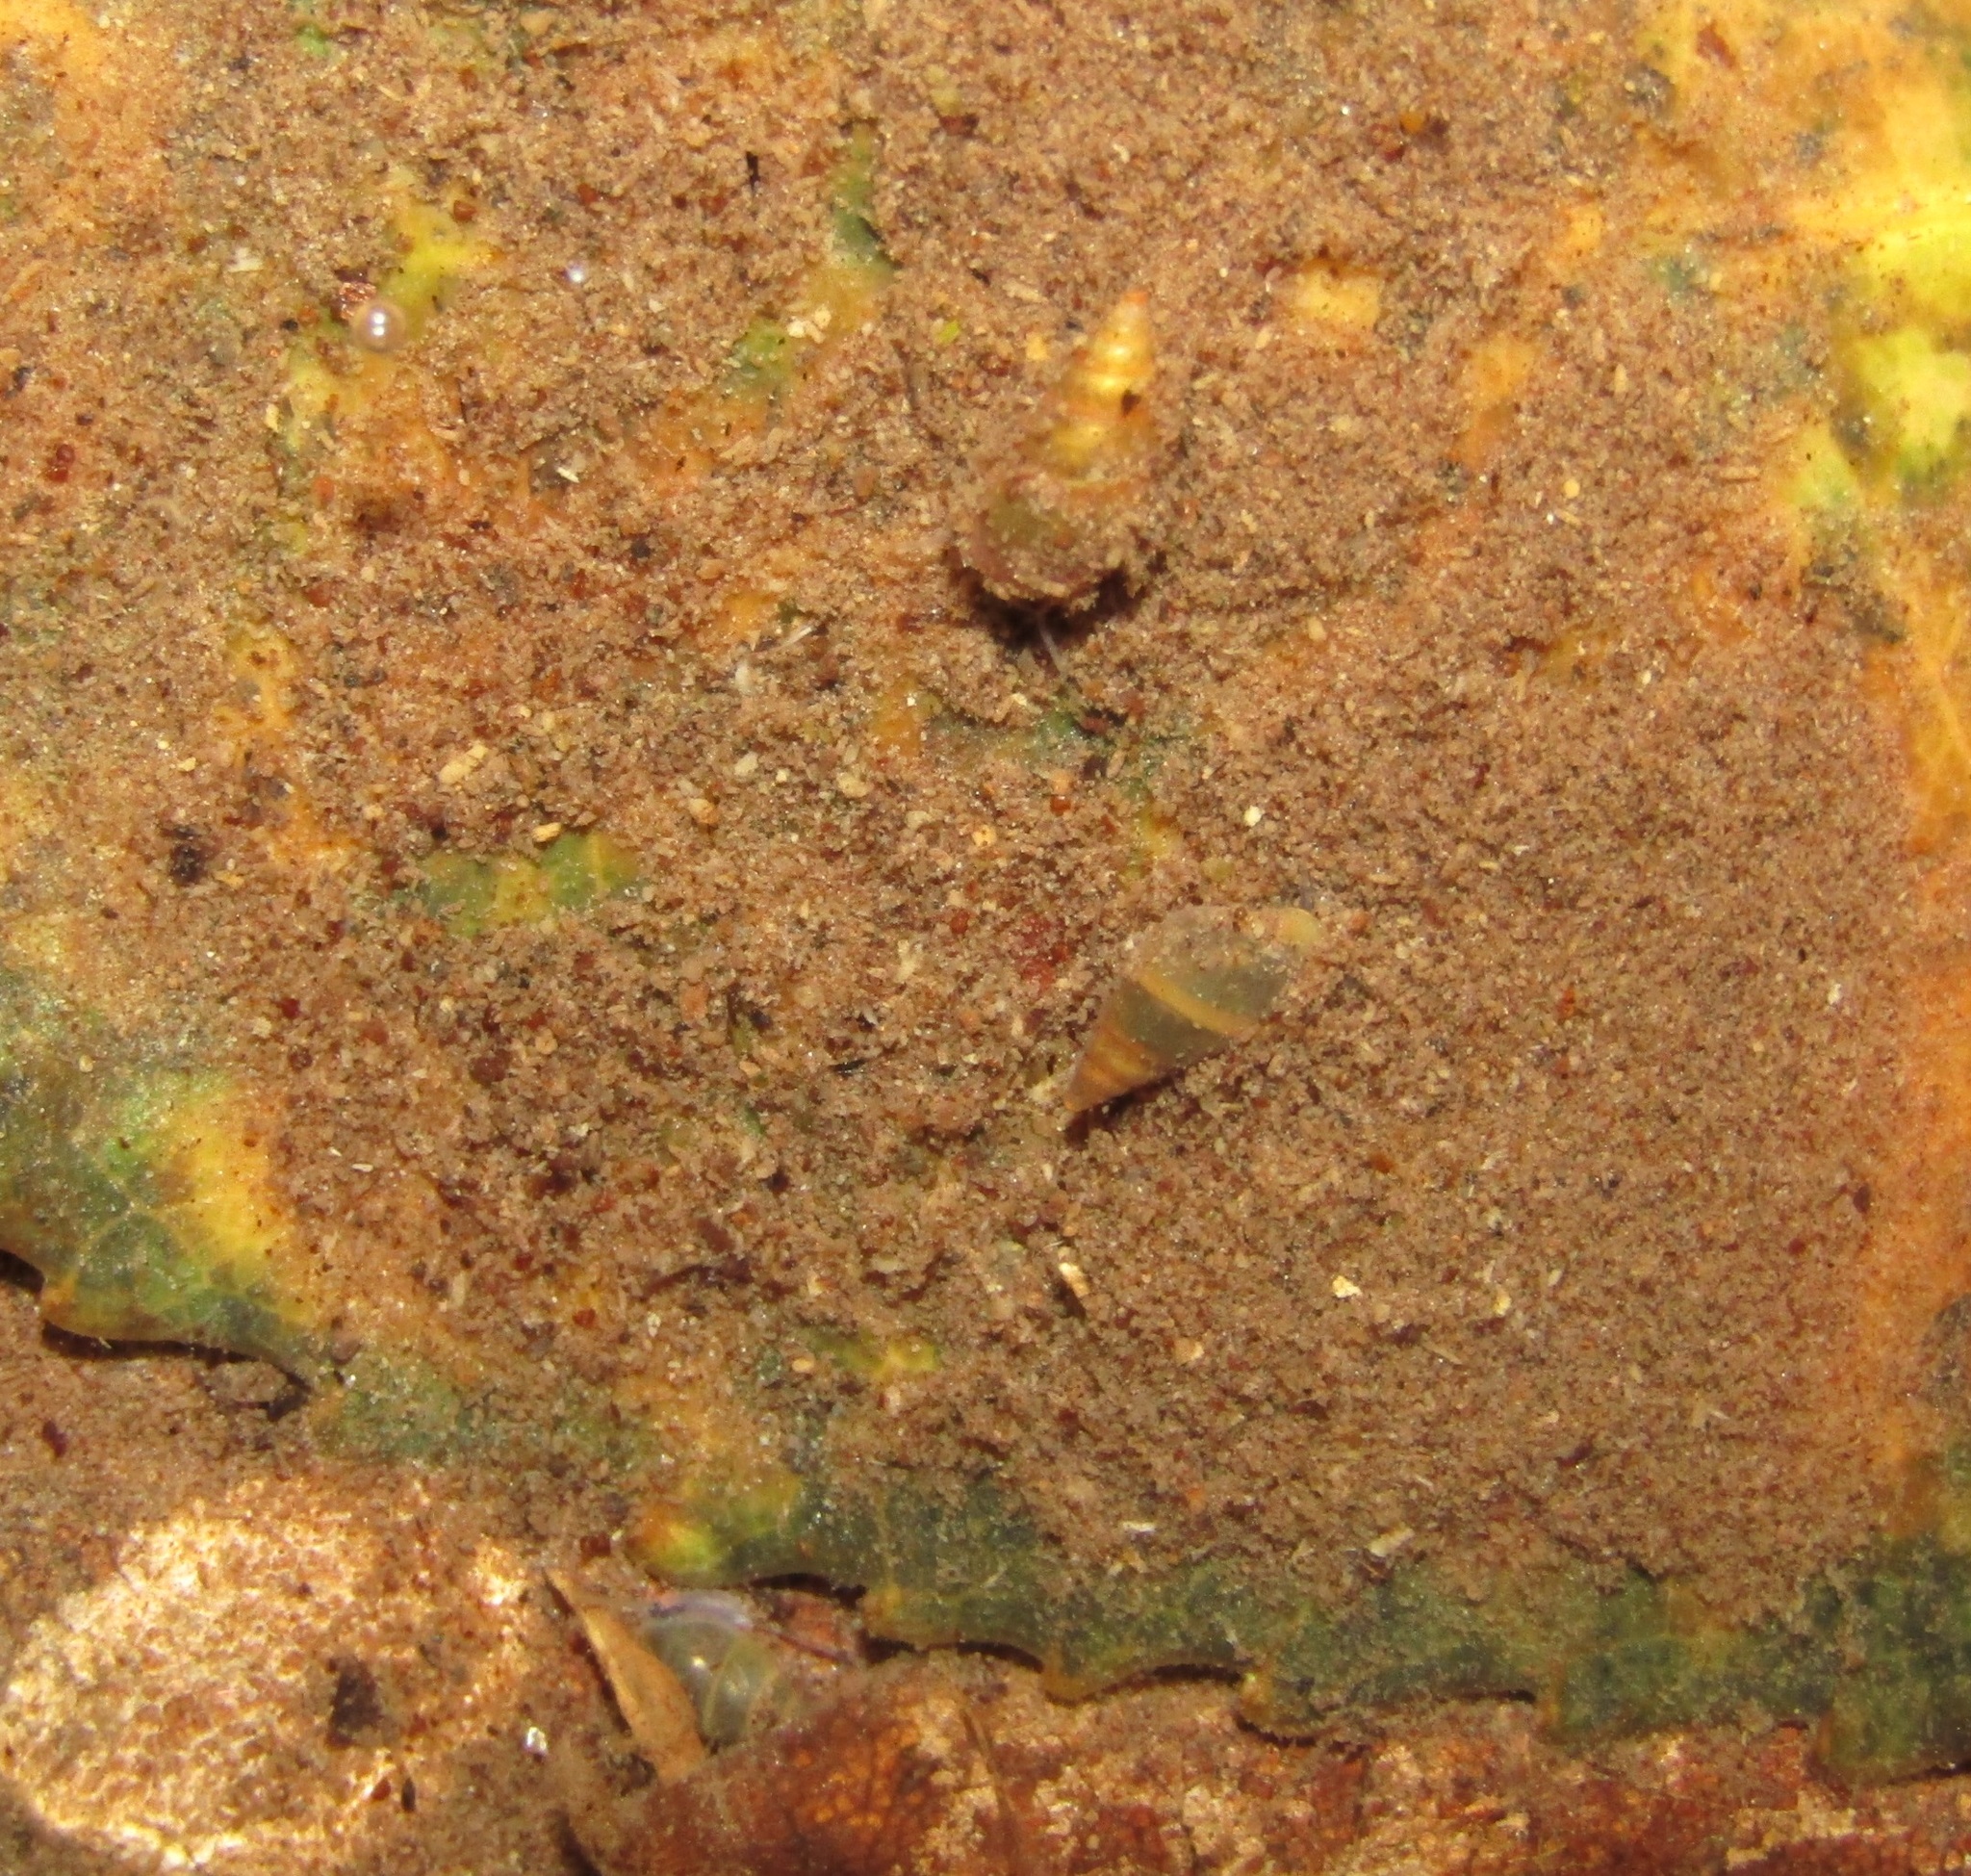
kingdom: Animalia
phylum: Mollusca
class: Gastropoda
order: Littorinimorpha
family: Tateidae
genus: Potamopyrgus
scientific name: Potamopyrgus antipodarum
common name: Jenkins' spire snail
